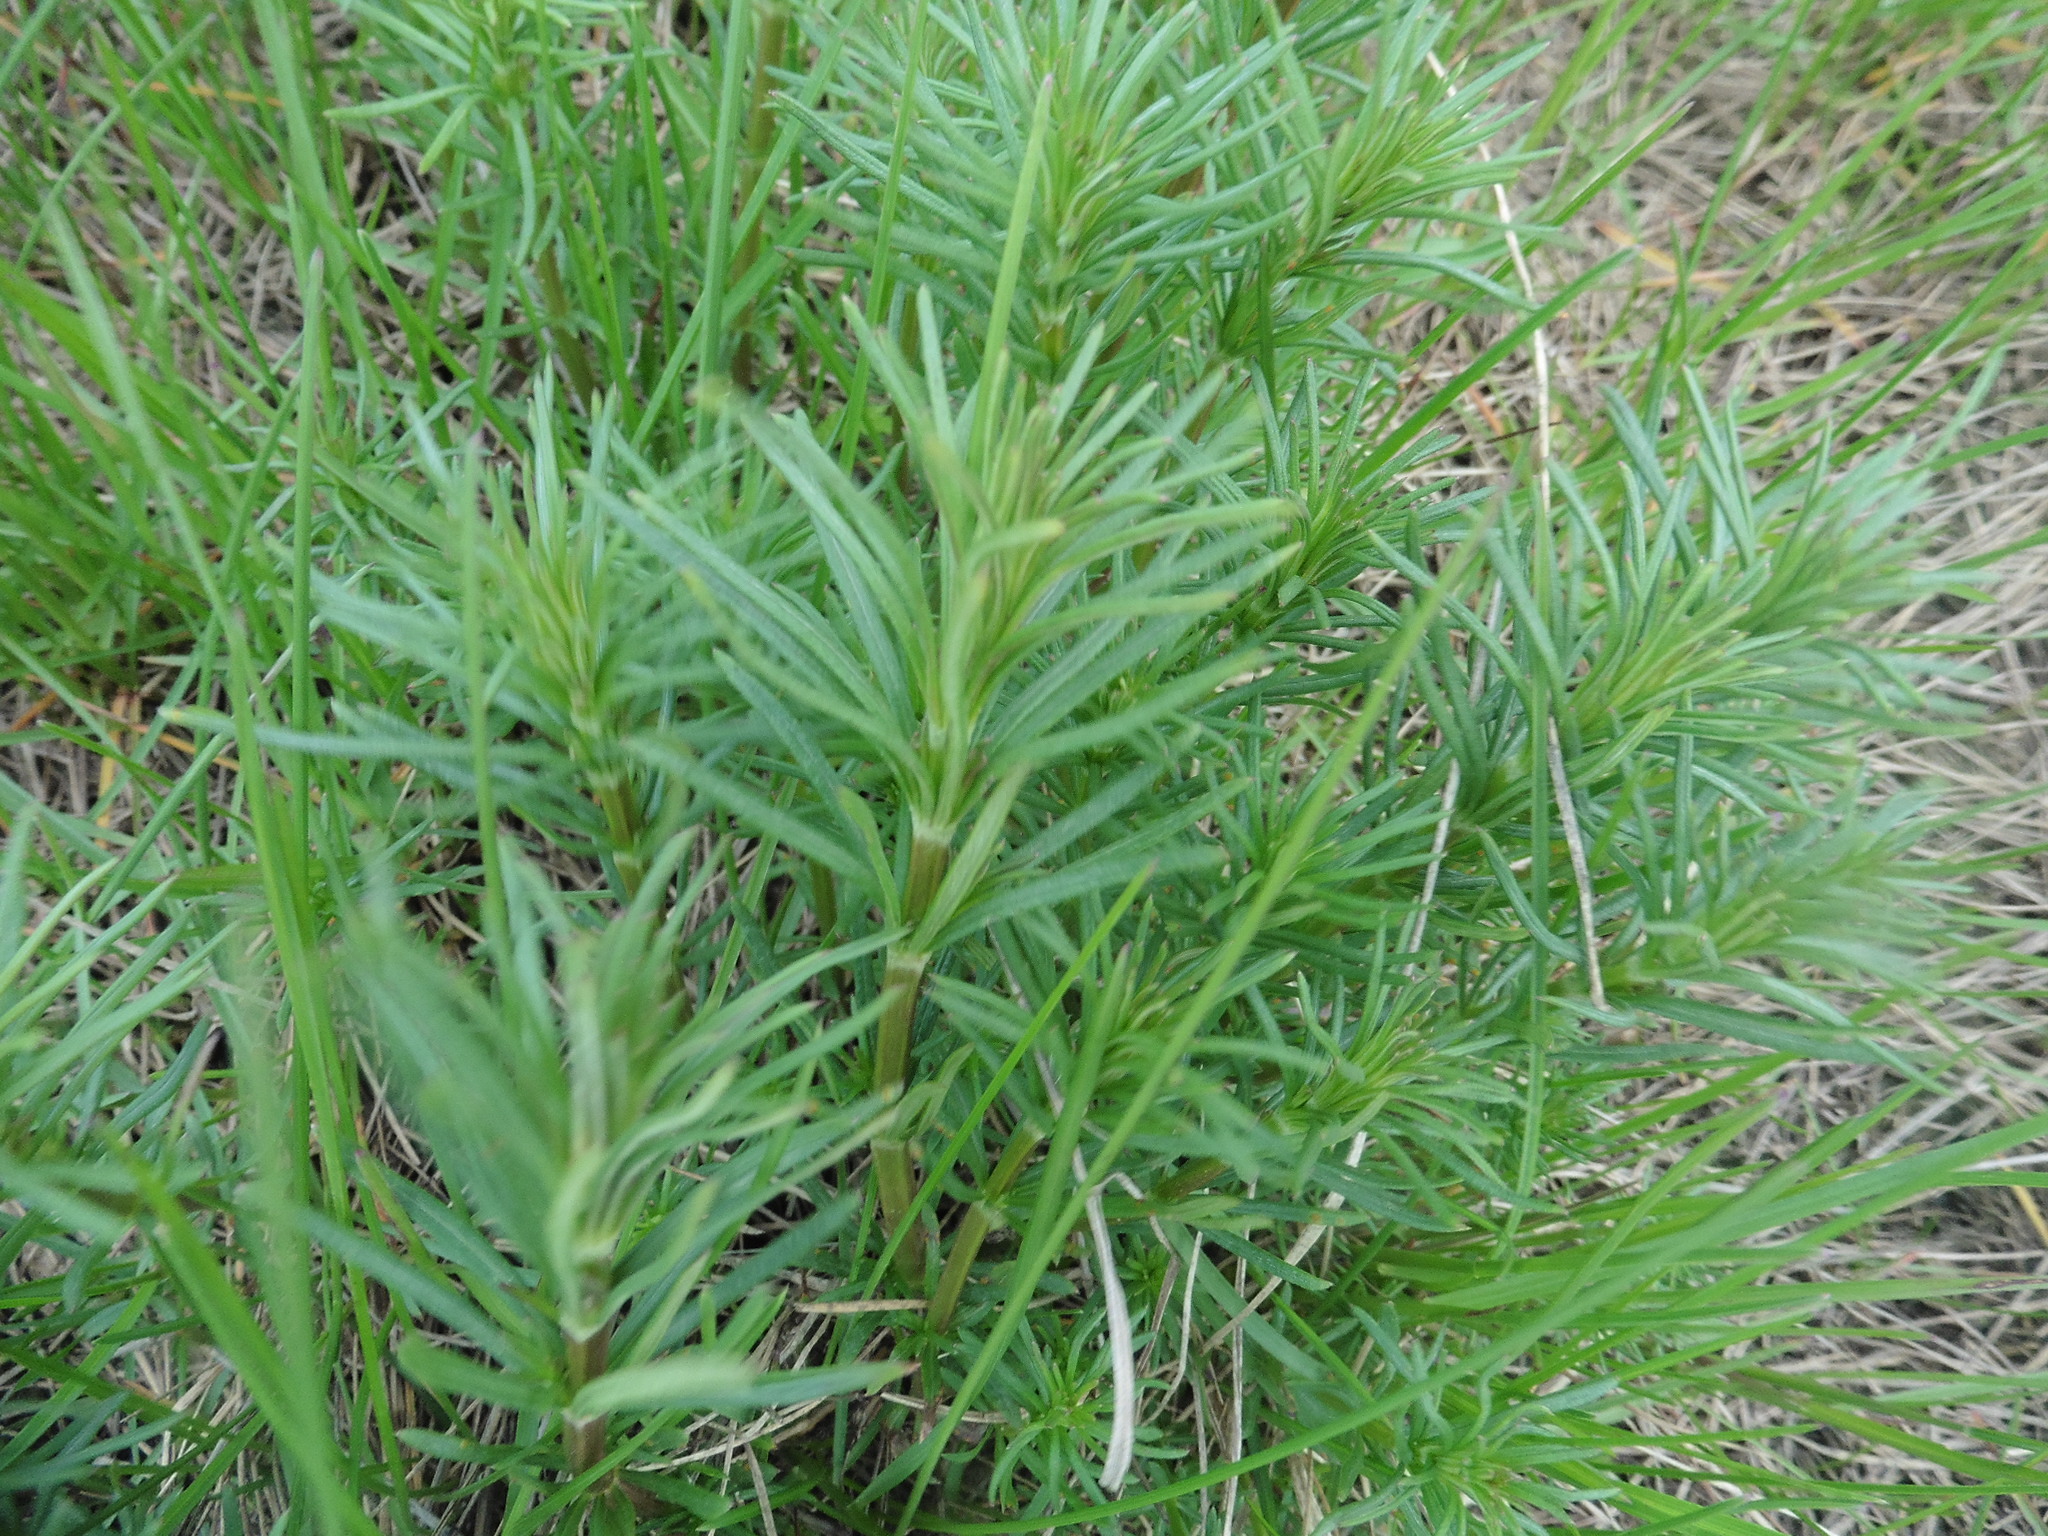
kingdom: Plantae
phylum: Tracheophyta
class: Magnoliopsida
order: Gentianales
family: Rubiaceae
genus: Galium
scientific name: Galium verum
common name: Lady's bedstraw
